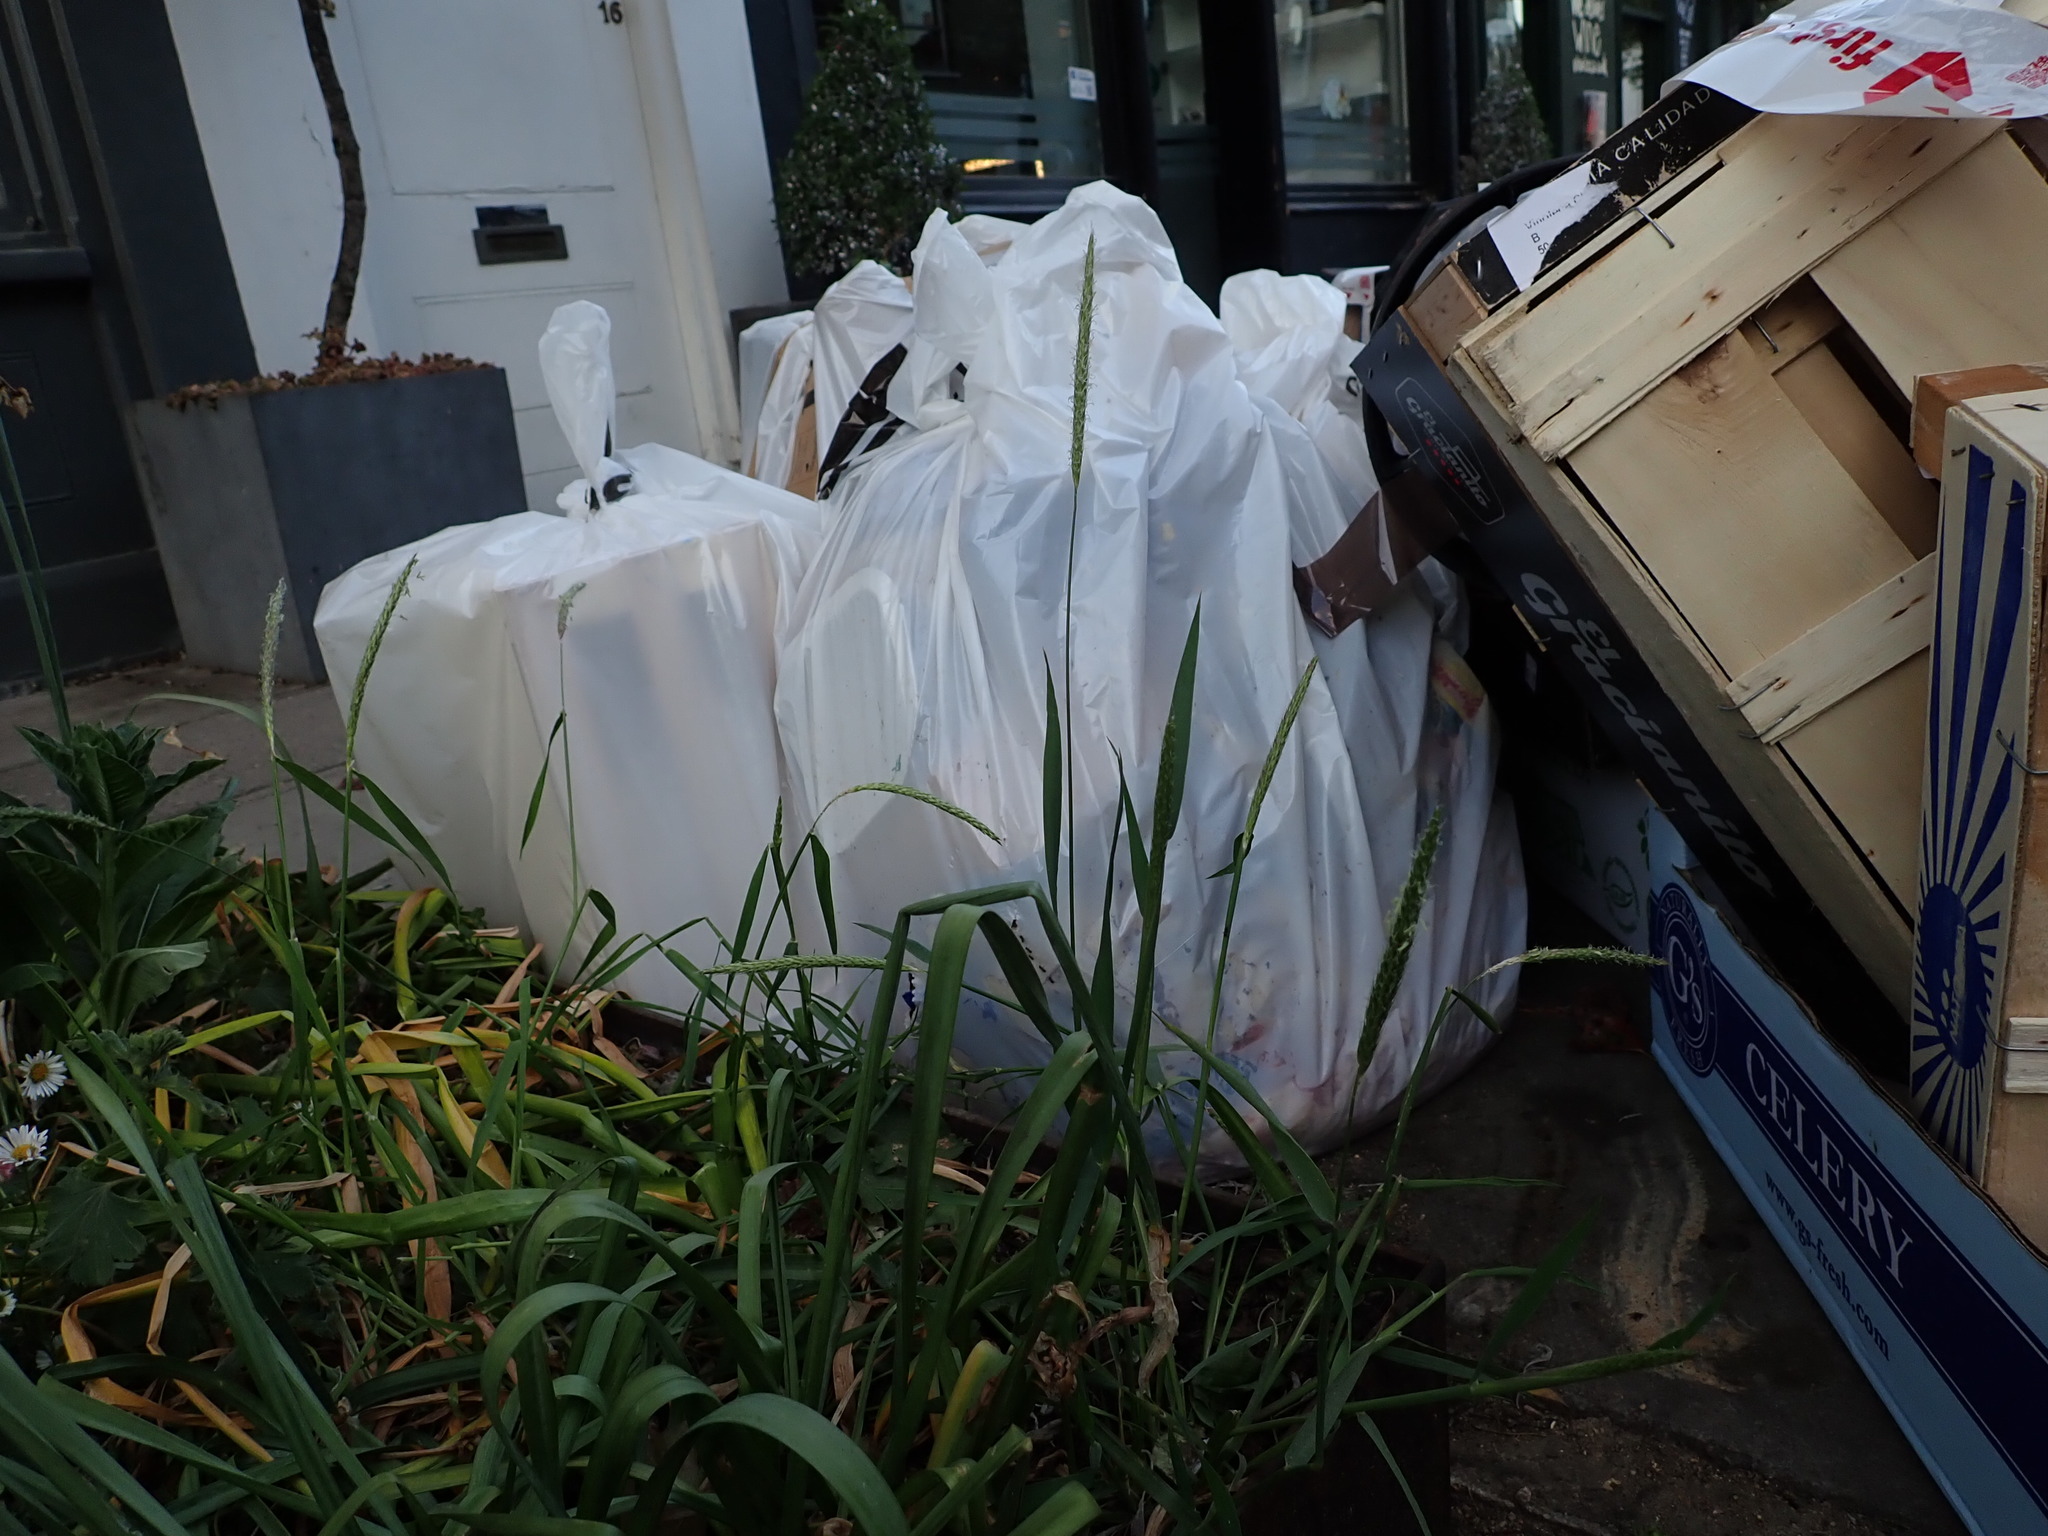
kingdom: Plantae
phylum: Tracheophyta
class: Liliopsida
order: Poales
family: Poaceae
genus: Alopecurus
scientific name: Alopecurus pratensis
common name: Meadow foxtail
